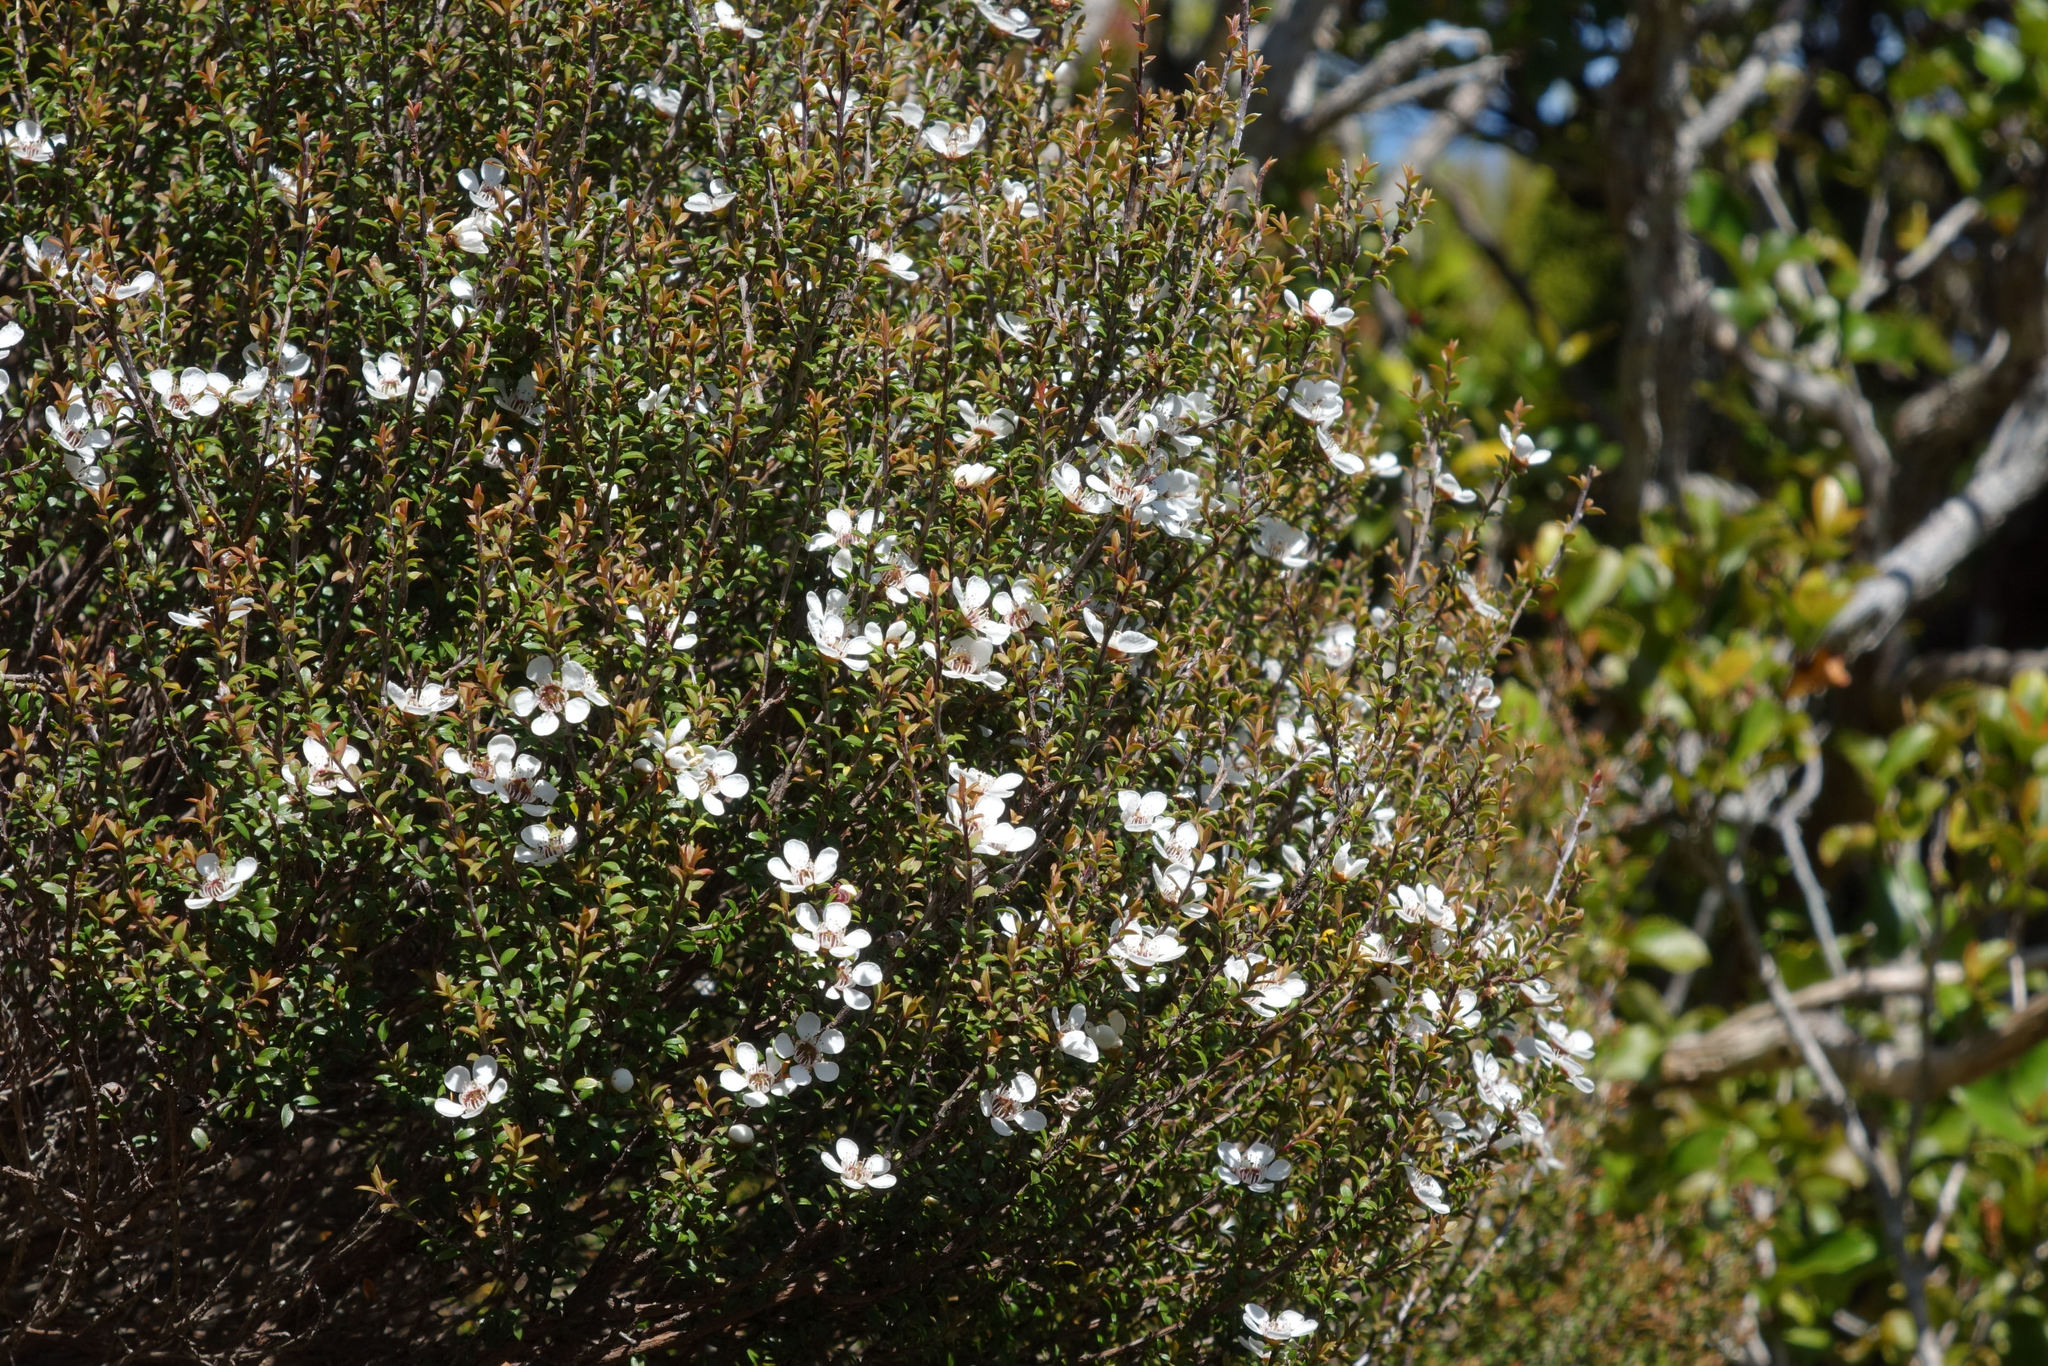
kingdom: Plantae
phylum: Tracheophyta
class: Magnoliopsida
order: Myrtales
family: Myrtaceae
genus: Leptospermum
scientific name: Leptospermum scoparium
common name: Broom tea-tree
